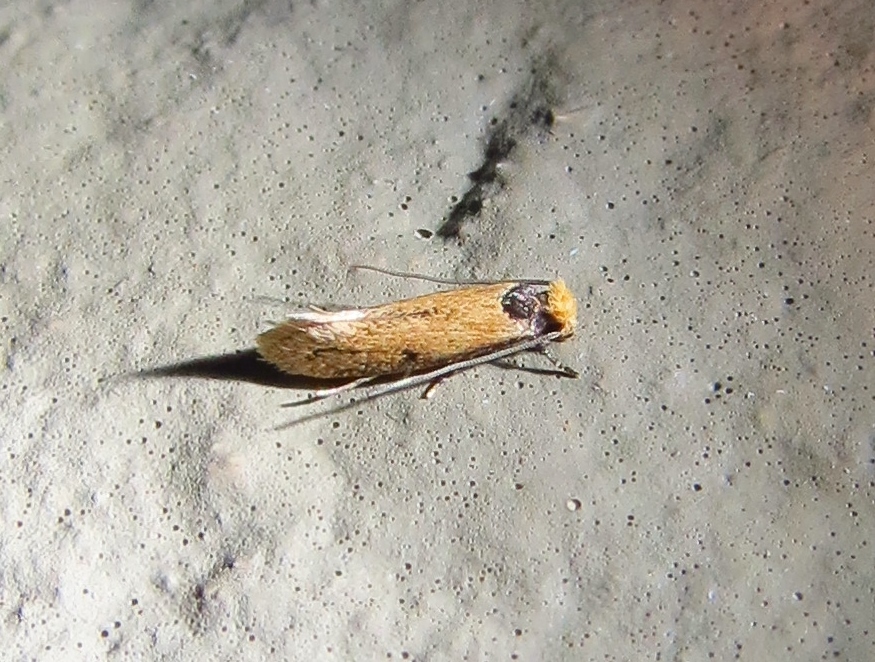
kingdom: Animalia
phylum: Arthropoda
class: Insecta
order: Lepidoptera
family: Meessiidae
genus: Homostinea
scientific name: Homostinea curviliniella
